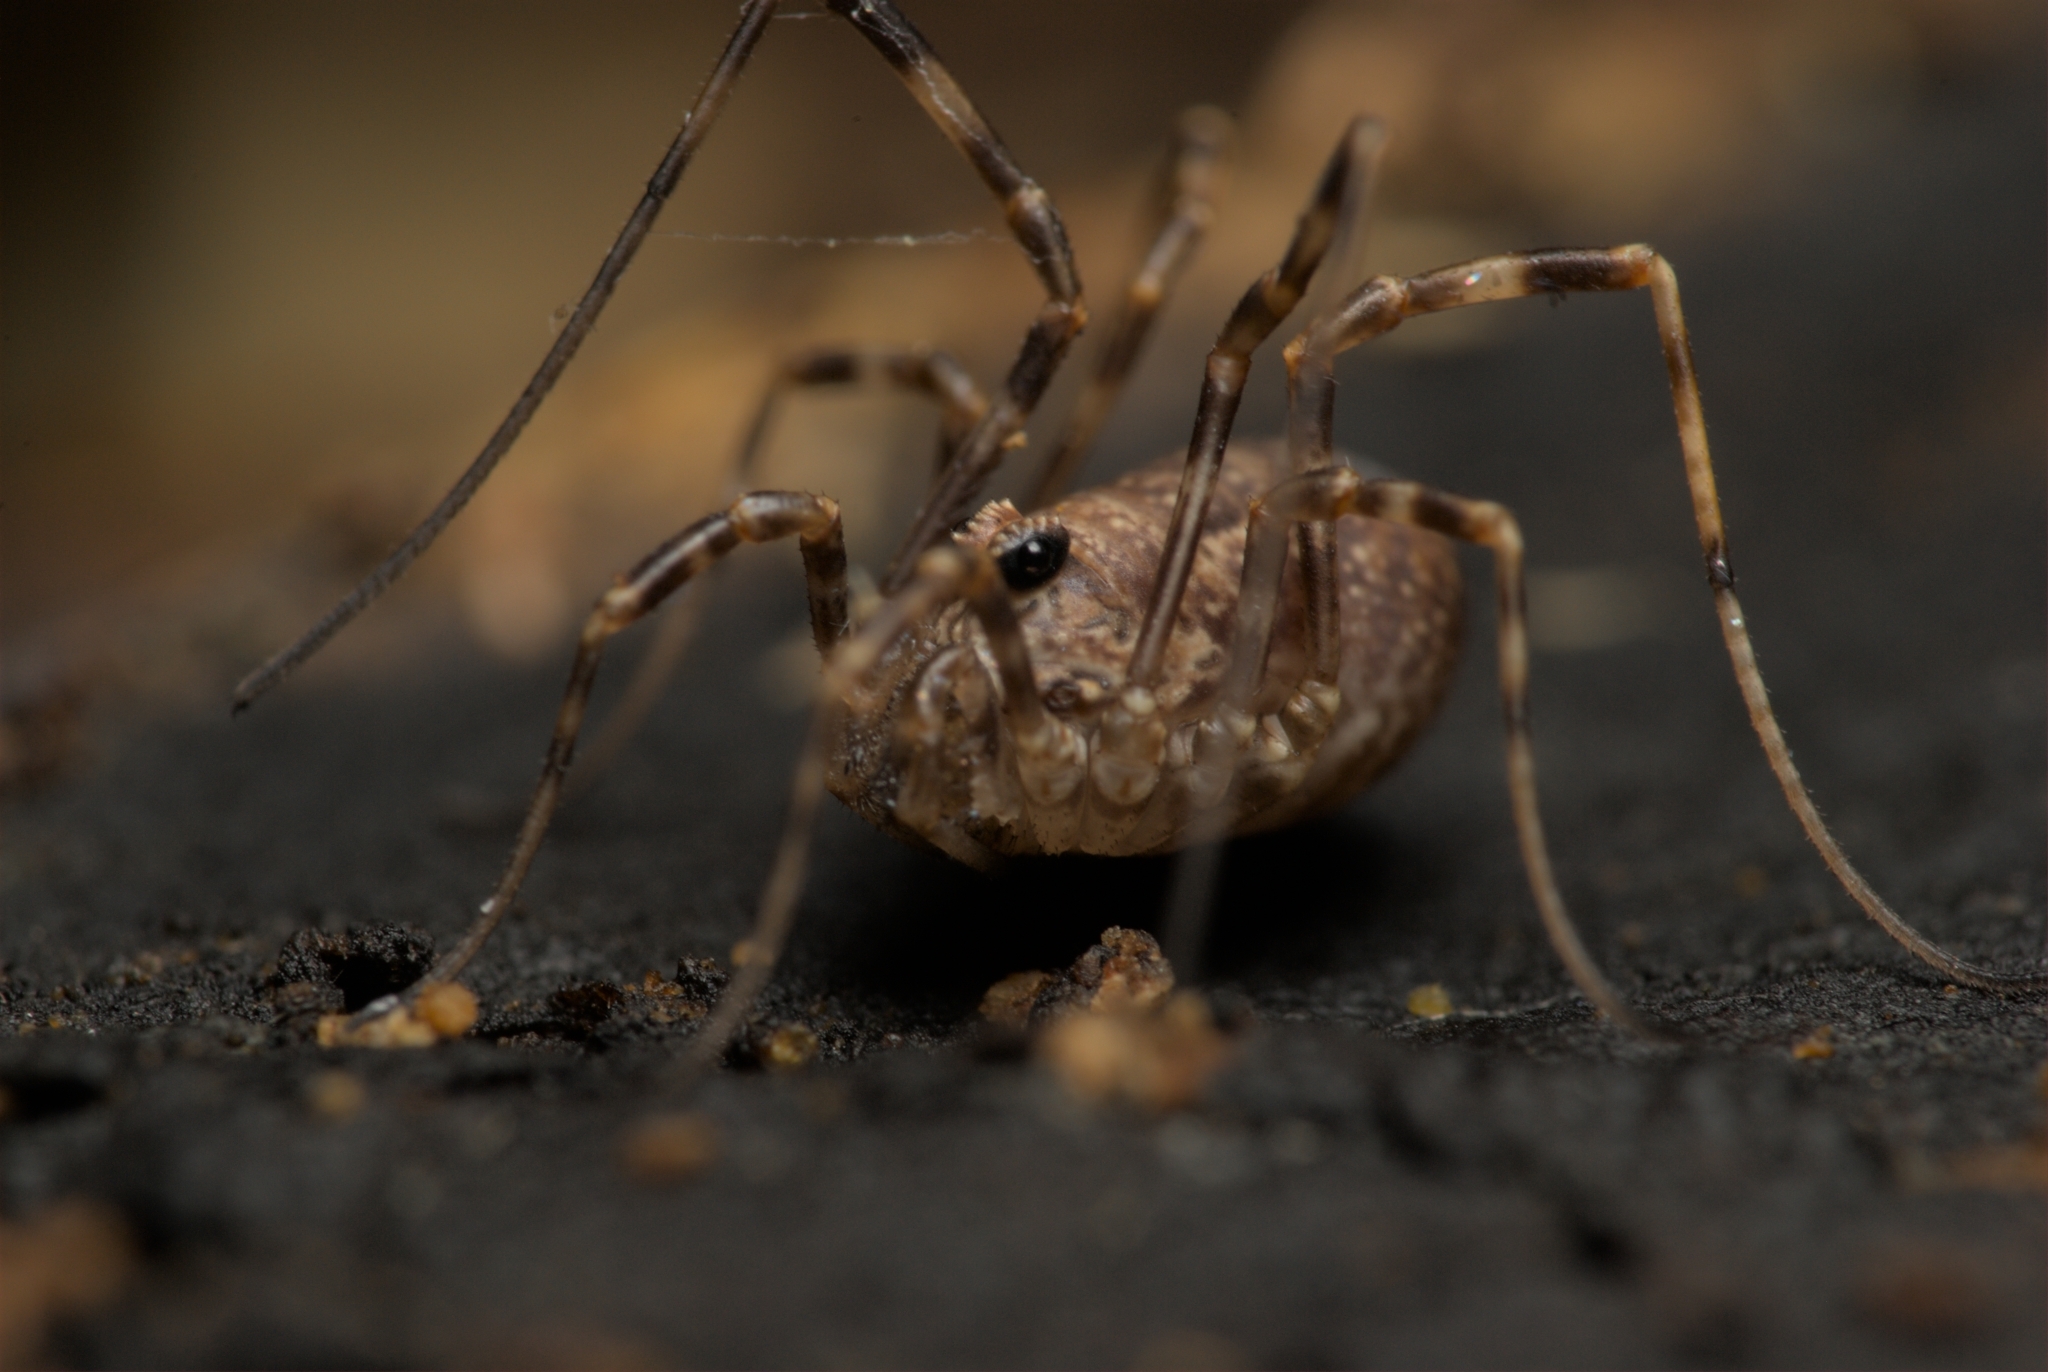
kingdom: Animalia
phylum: Arthropoda
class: Arachnida
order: Opiliones
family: Phalangiidae
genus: Rilaena
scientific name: Rilaena triangularis
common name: Spring harvestman
